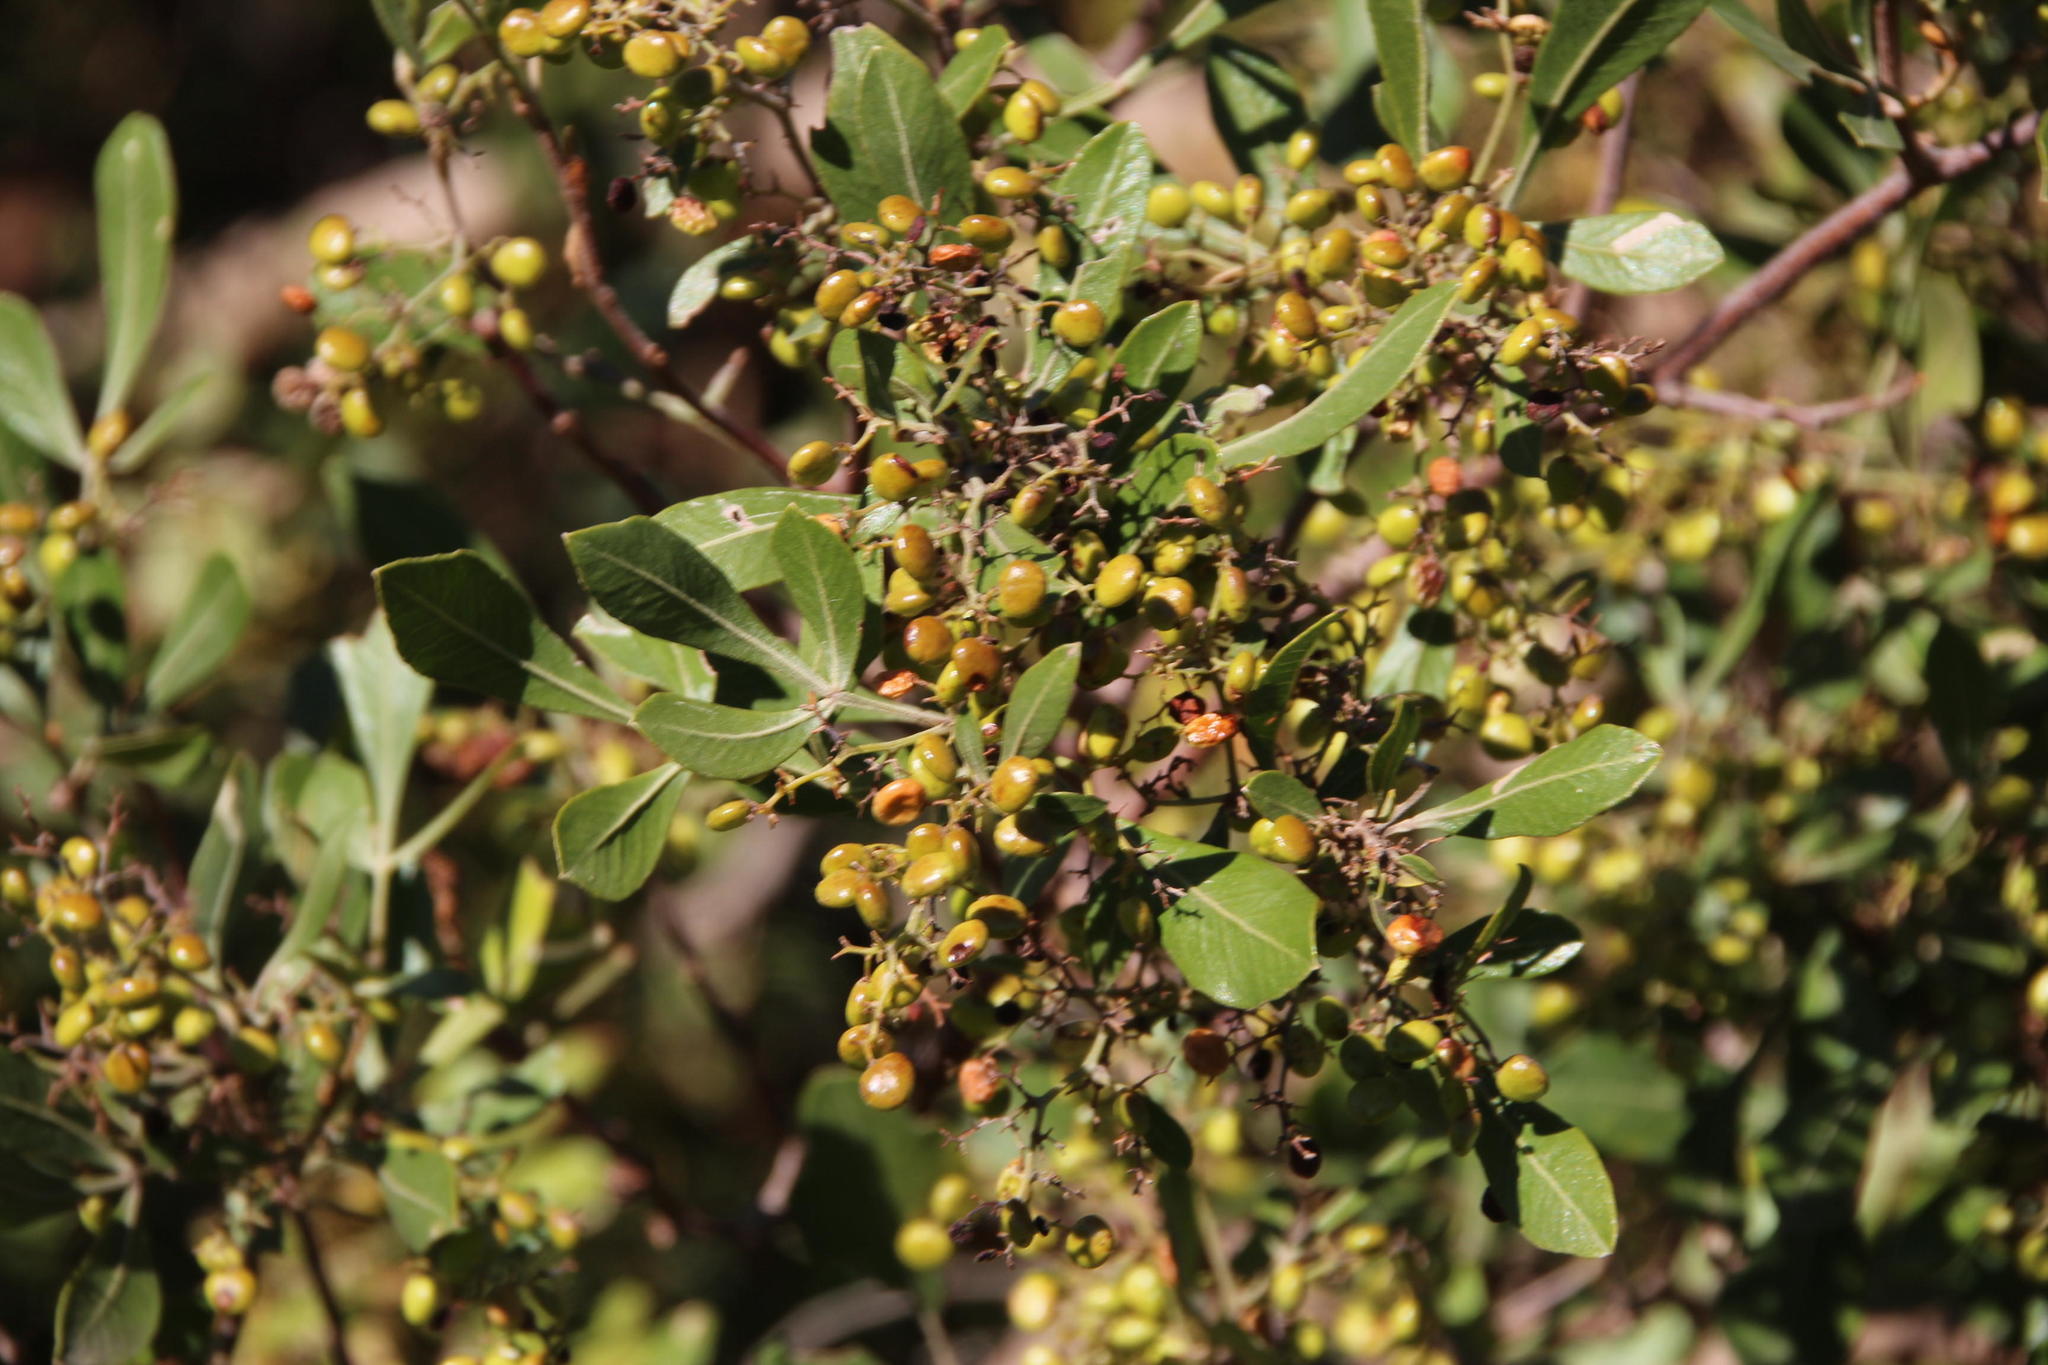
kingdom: Plantae
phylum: Tracheophyta
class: Magnoliopsida
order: Sapindales
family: Anacardiaceae
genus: Searsia
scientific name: Searsia pallens
